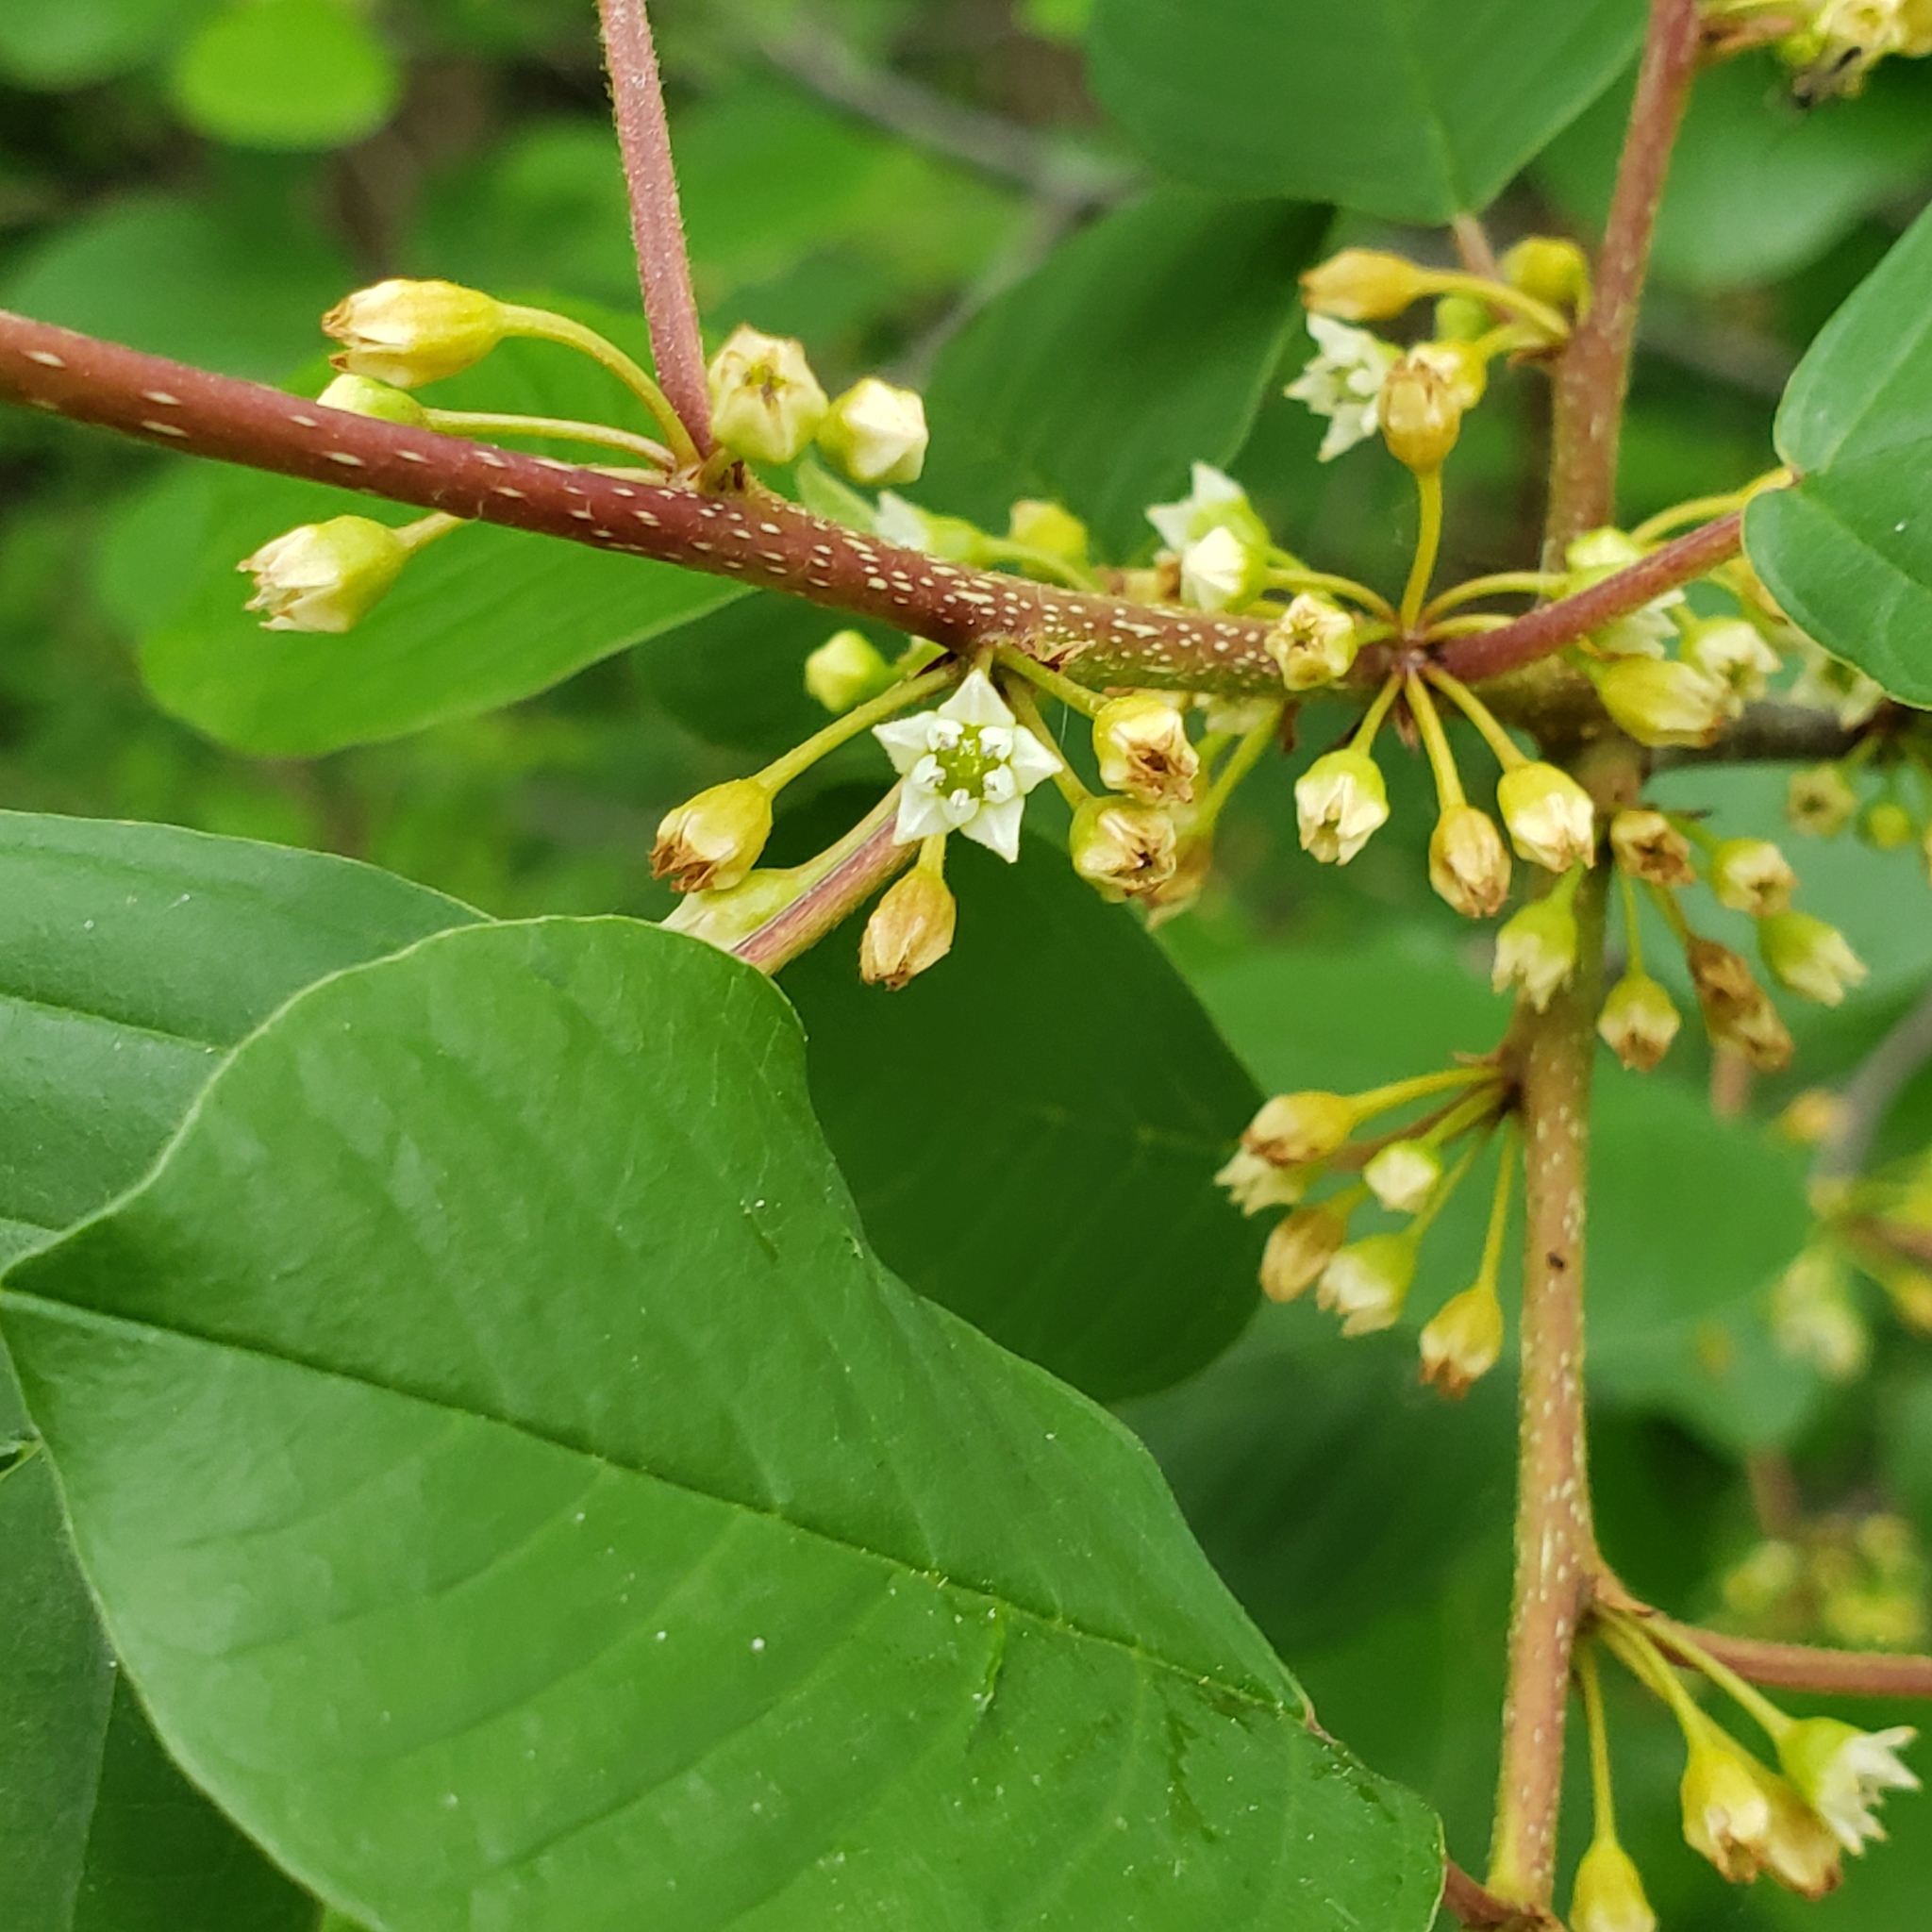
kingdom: Plantae
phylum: Tracheophyta
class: Magnoliopsida
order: Rosales
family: Rhamnaceae
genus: Frangula
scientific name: Frangula alnus
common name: Alder buckthorn
